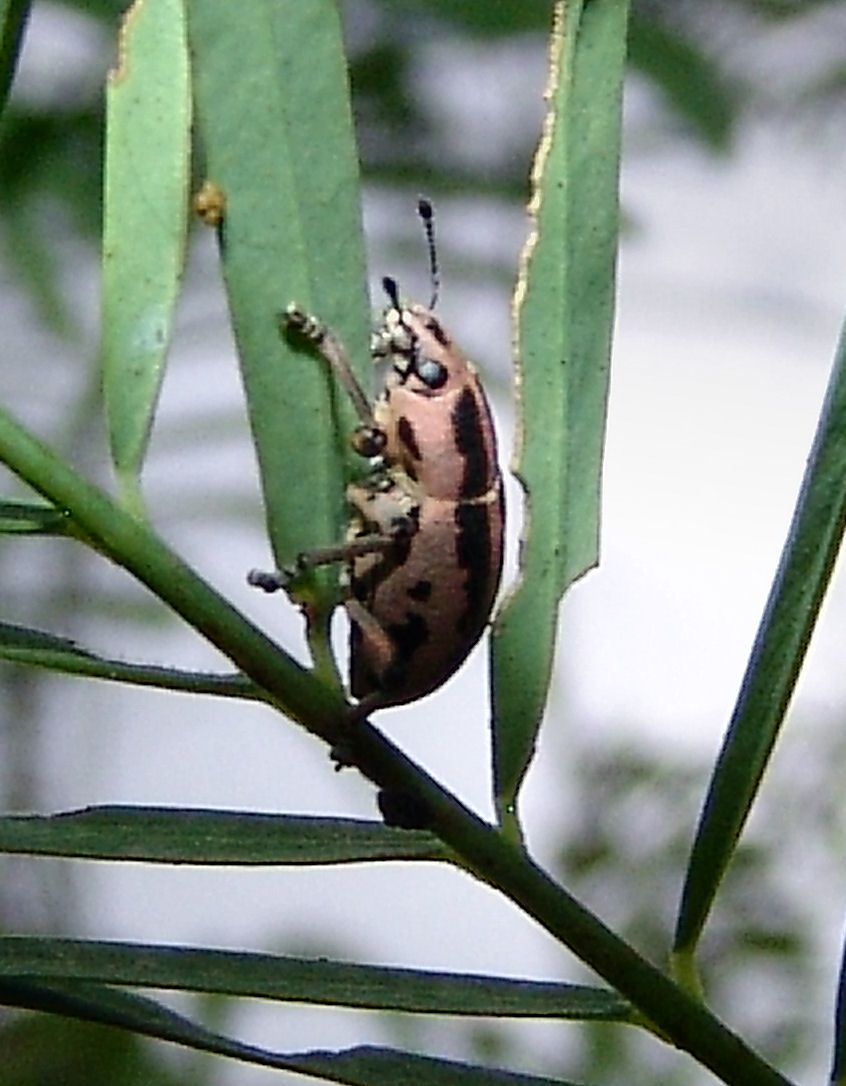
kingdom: Animalia
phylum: Arthropoda
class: Insecta
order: Coleoptera
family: Curculionidae
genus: Eudiagogus
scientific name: Eudiagogus rosenschoeldi
